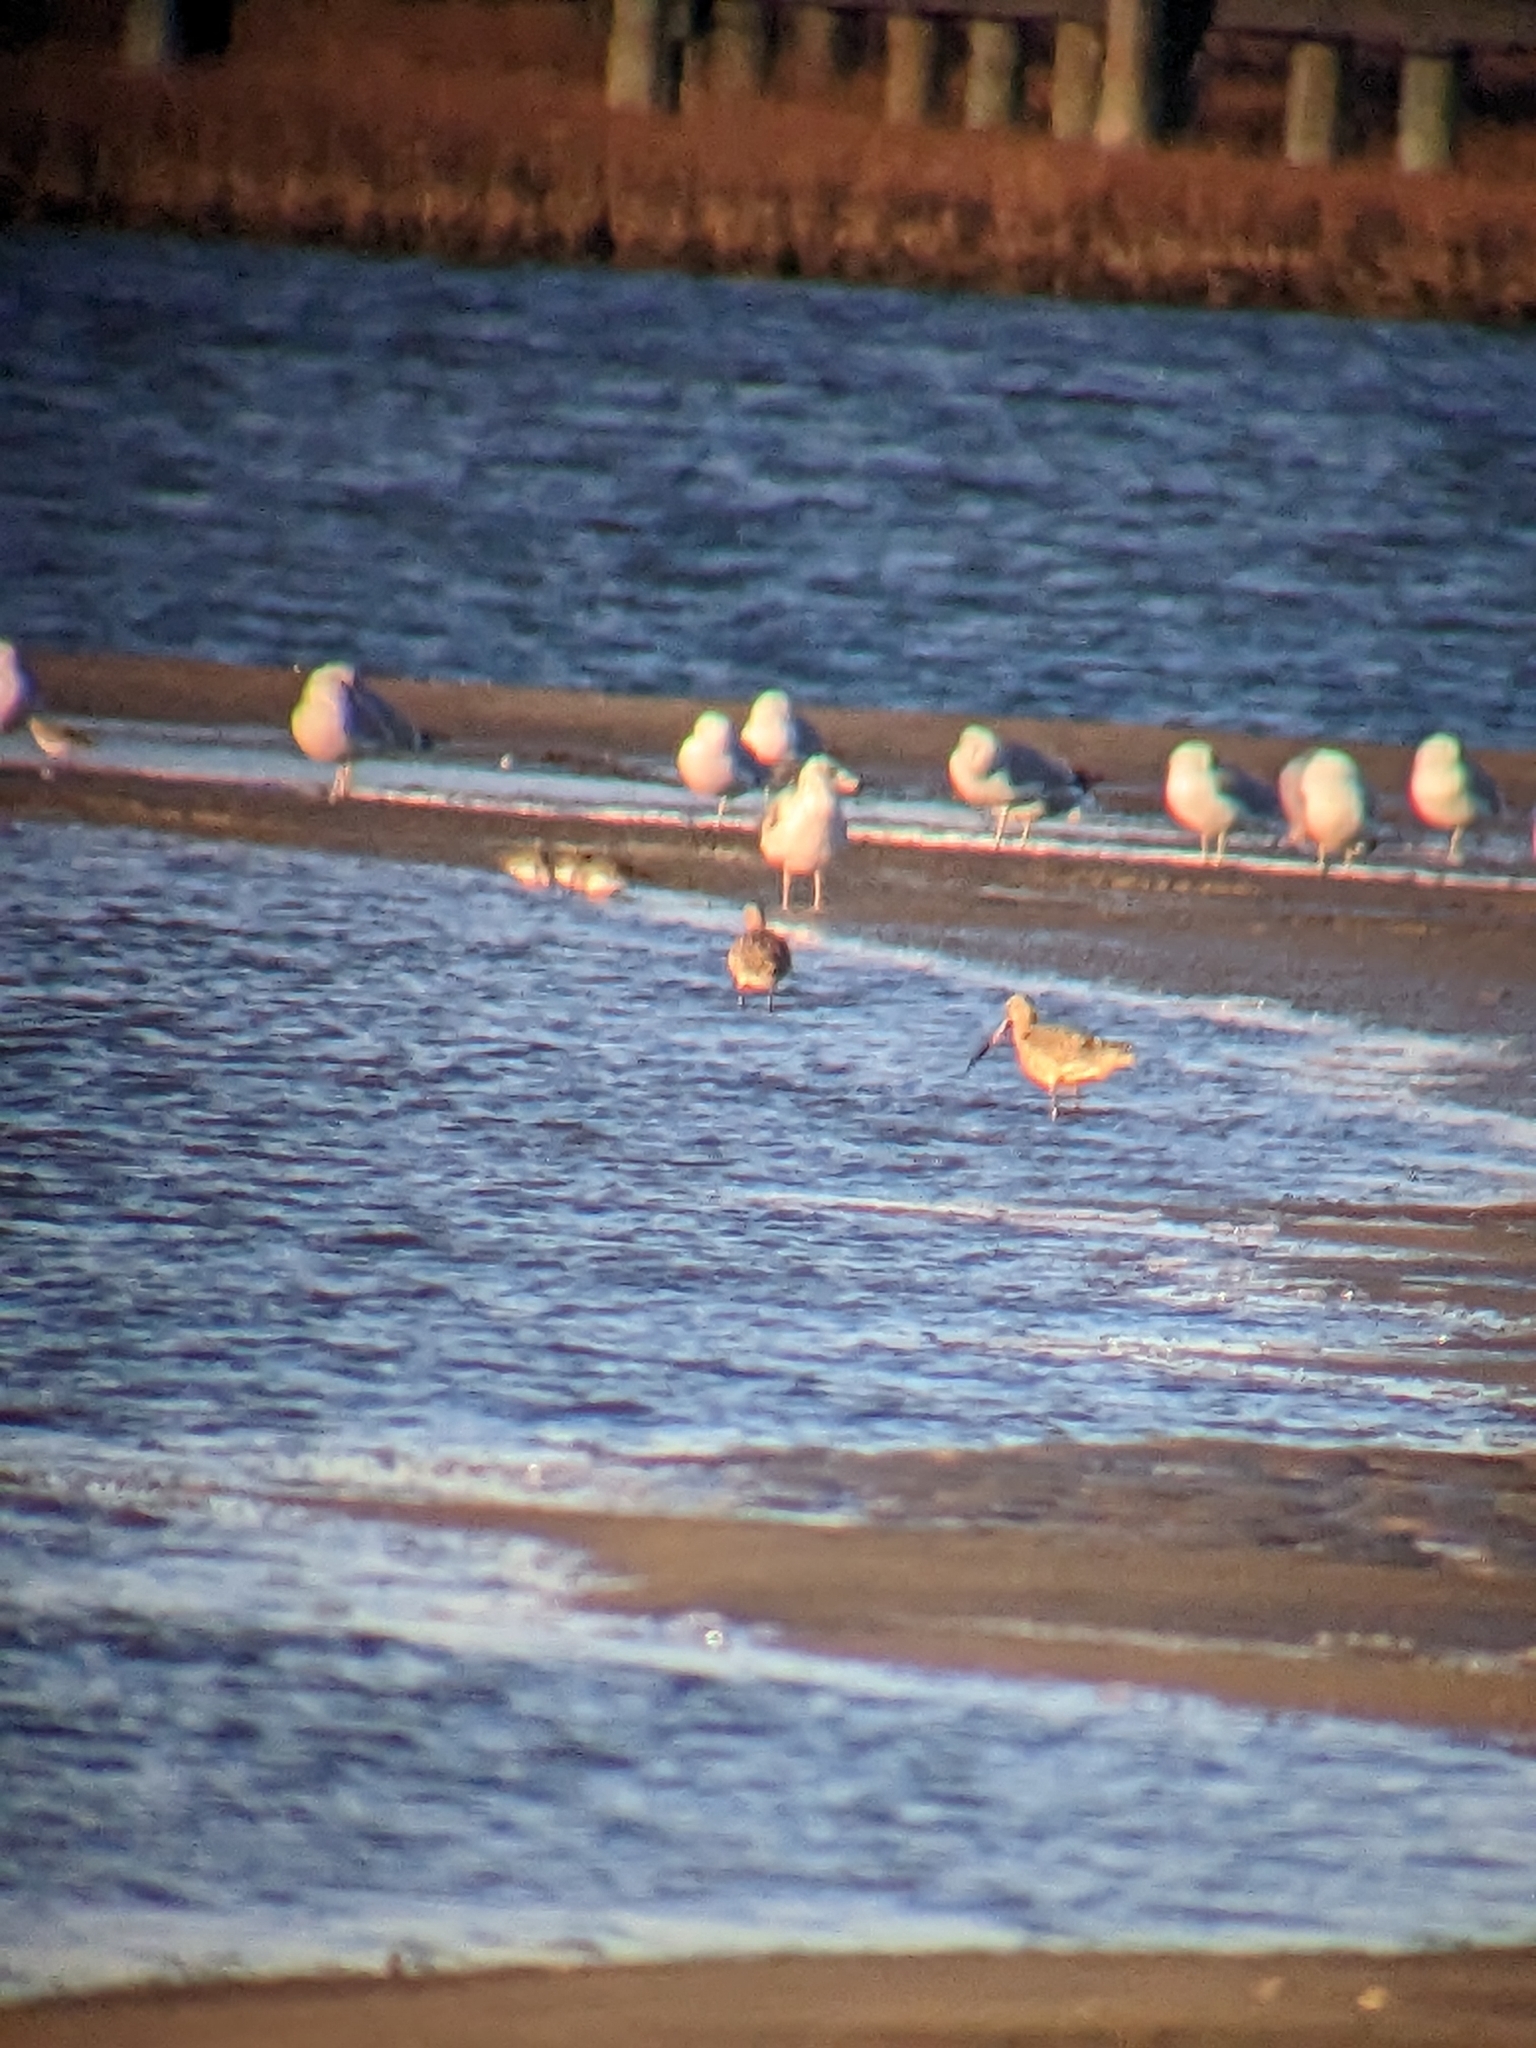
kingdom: Animalia
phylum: Chordata
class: Aves
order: Charadriiformes
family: Scolopacidae
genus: Limosa
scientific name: Limosa fedoa
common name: Marbled godwit
